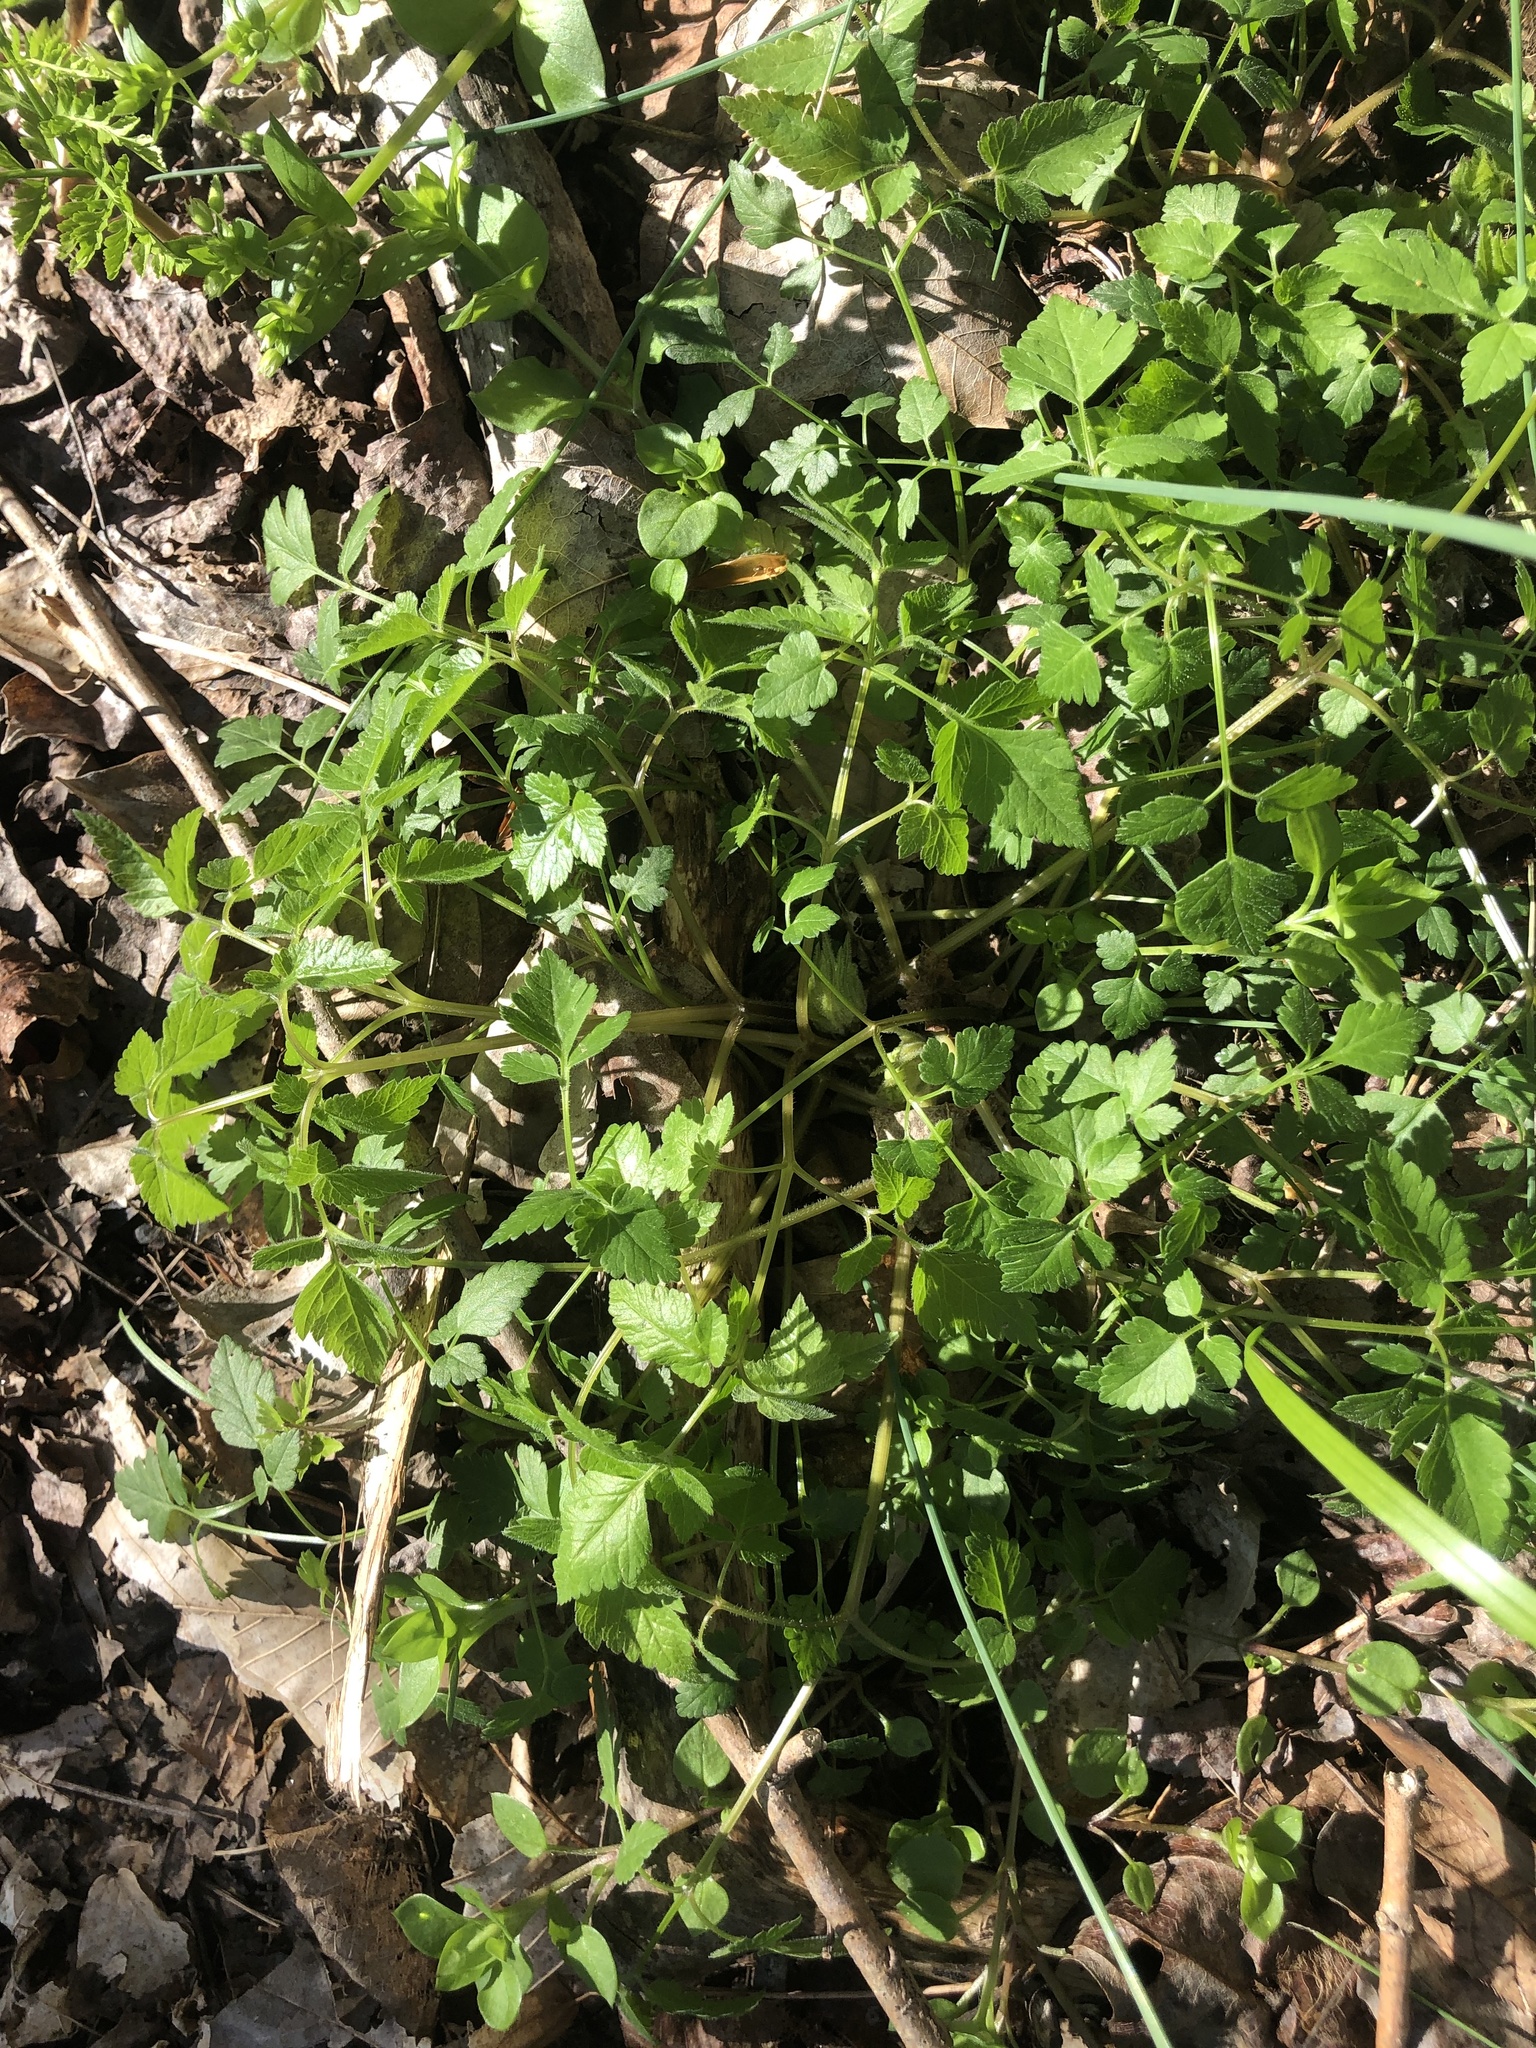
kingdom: Plantae
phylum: Tracheophyta
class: Magnoliopsida
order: Apiales
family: Apiaceae
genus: Osmorhiza
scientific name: Osmorhiza longistylis
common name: Smooth sweet cicely
